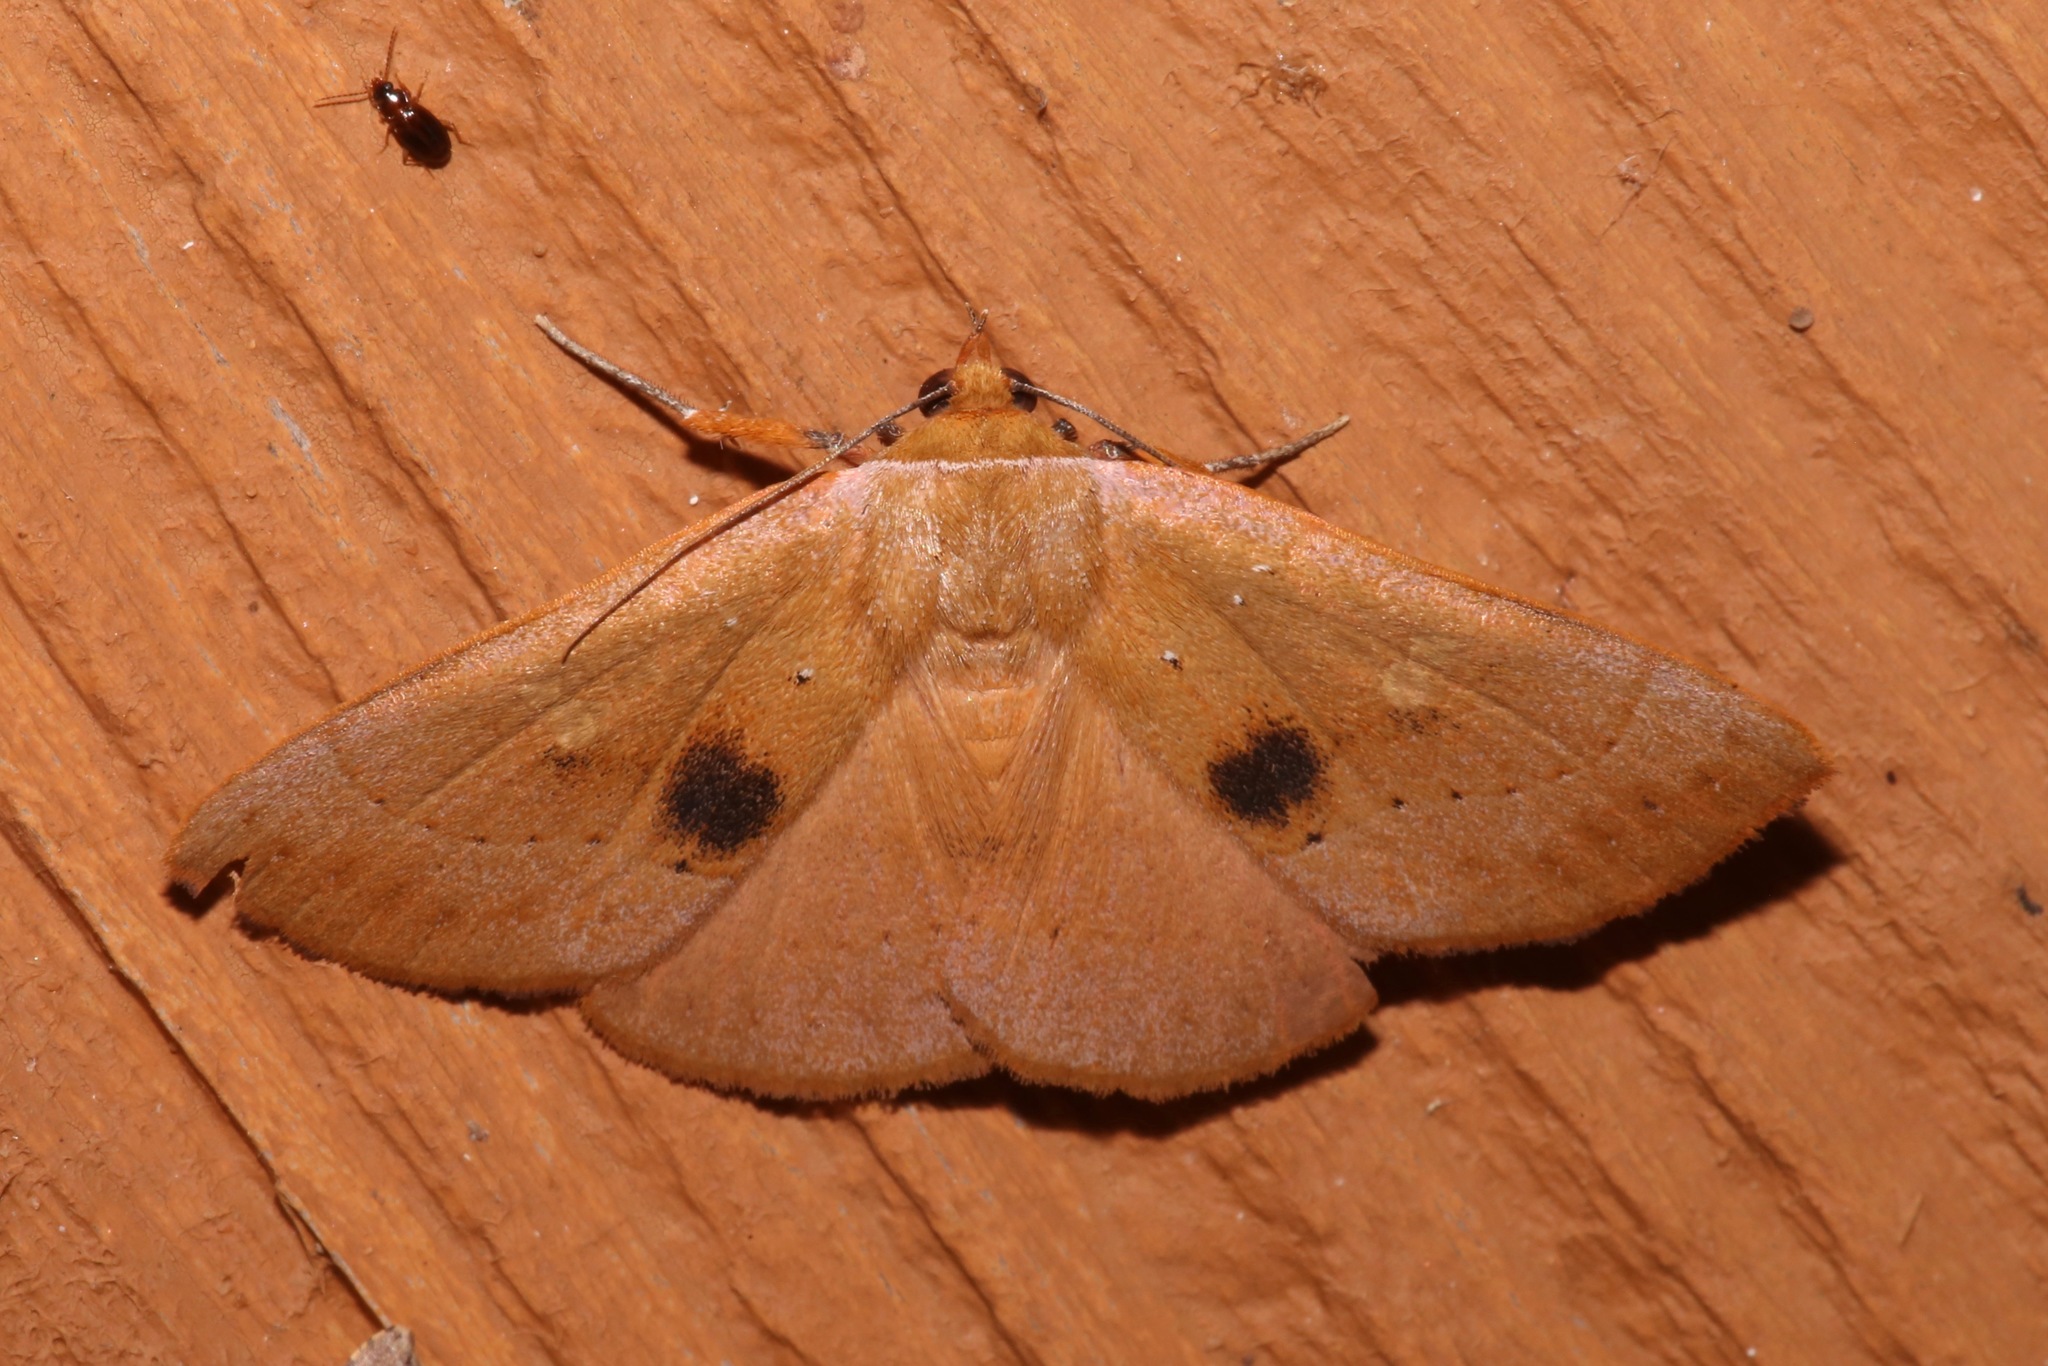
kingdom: Animalia
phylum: Arthropoda
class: Insecta
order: Lepidoptera
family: Erebidae
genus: Panopoda
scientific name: Panopoda repanda
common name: Orange panopoda
